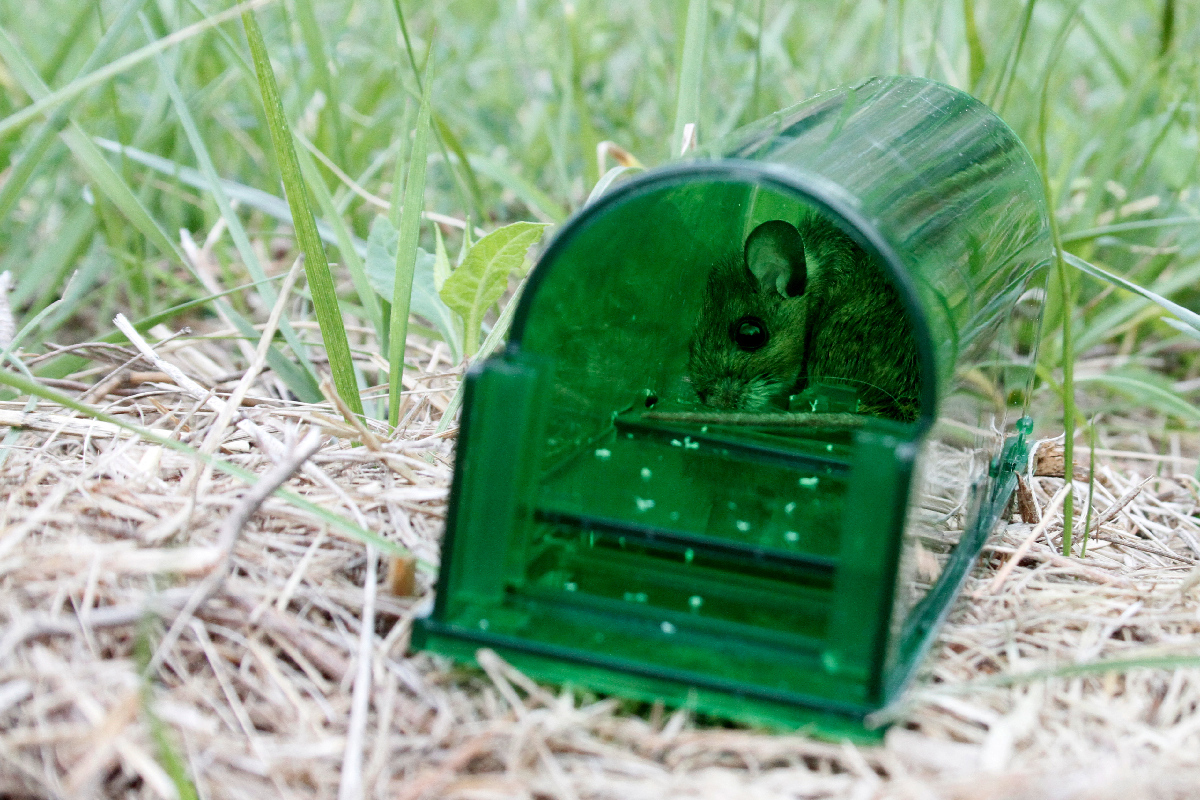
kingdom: Animalia
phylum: Chordata
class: Mammalia
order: Rodentia
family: Cricetidae
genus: Peromyscus
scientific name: Peromyscus leucopus
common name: White-footed deermouse
